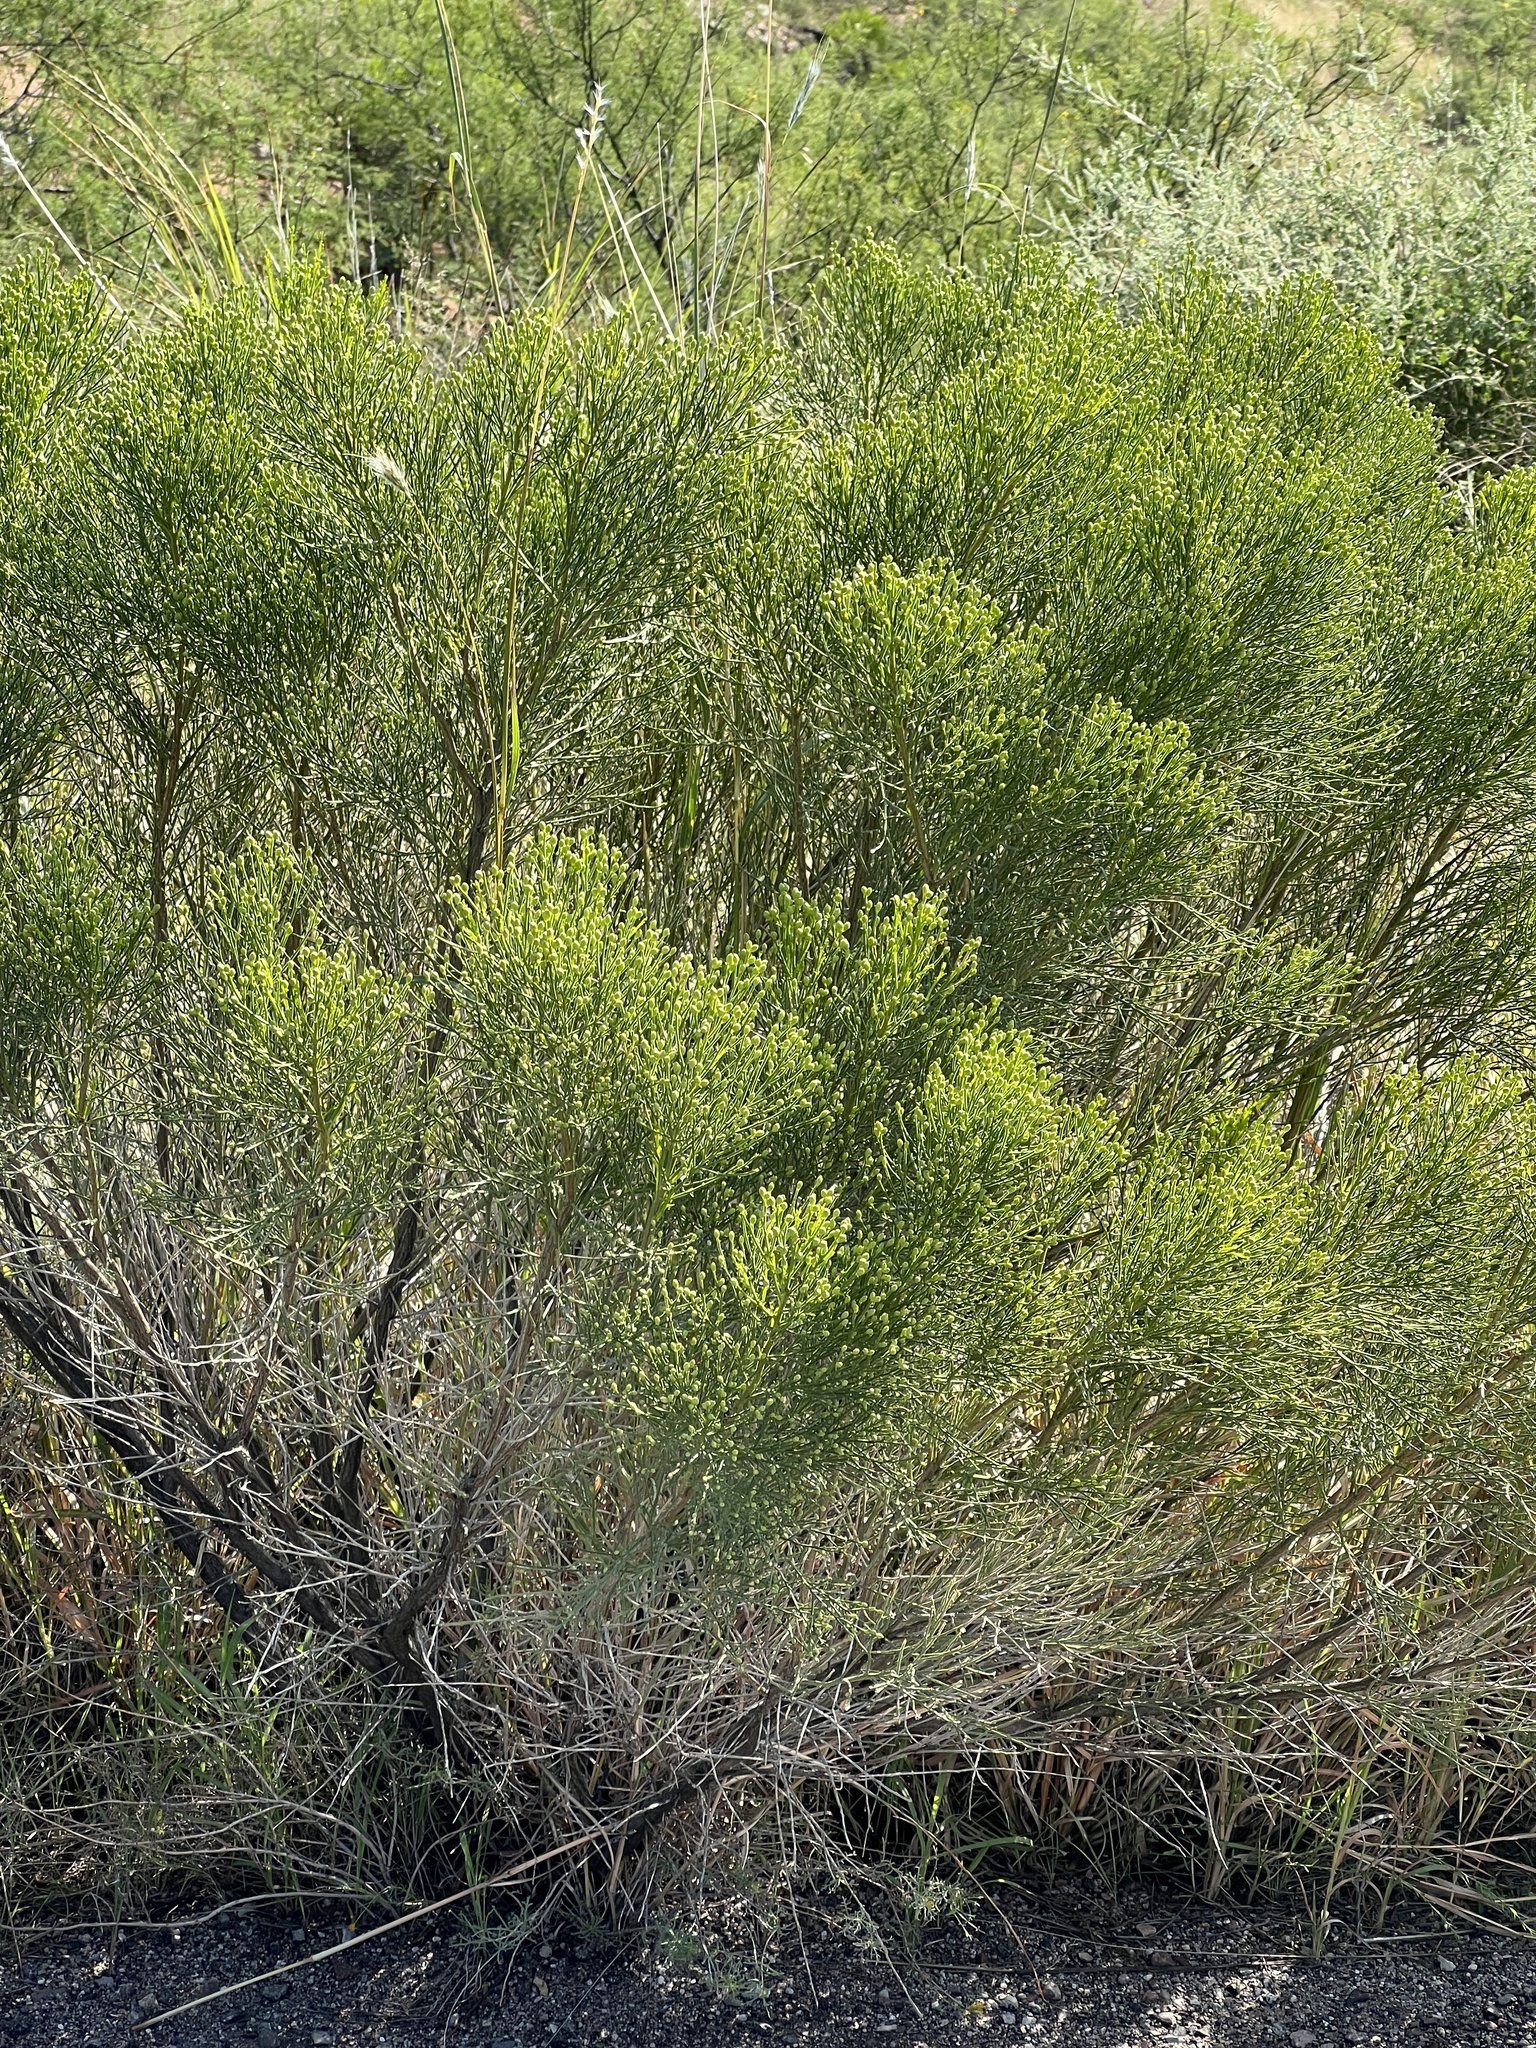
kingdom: Plantae
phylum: Tracheophyta
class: Magnoliopsida
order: Asterales
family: Asteraceae
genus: Baccharis
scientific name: Baccharis sarothroides
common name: Desert-broom
